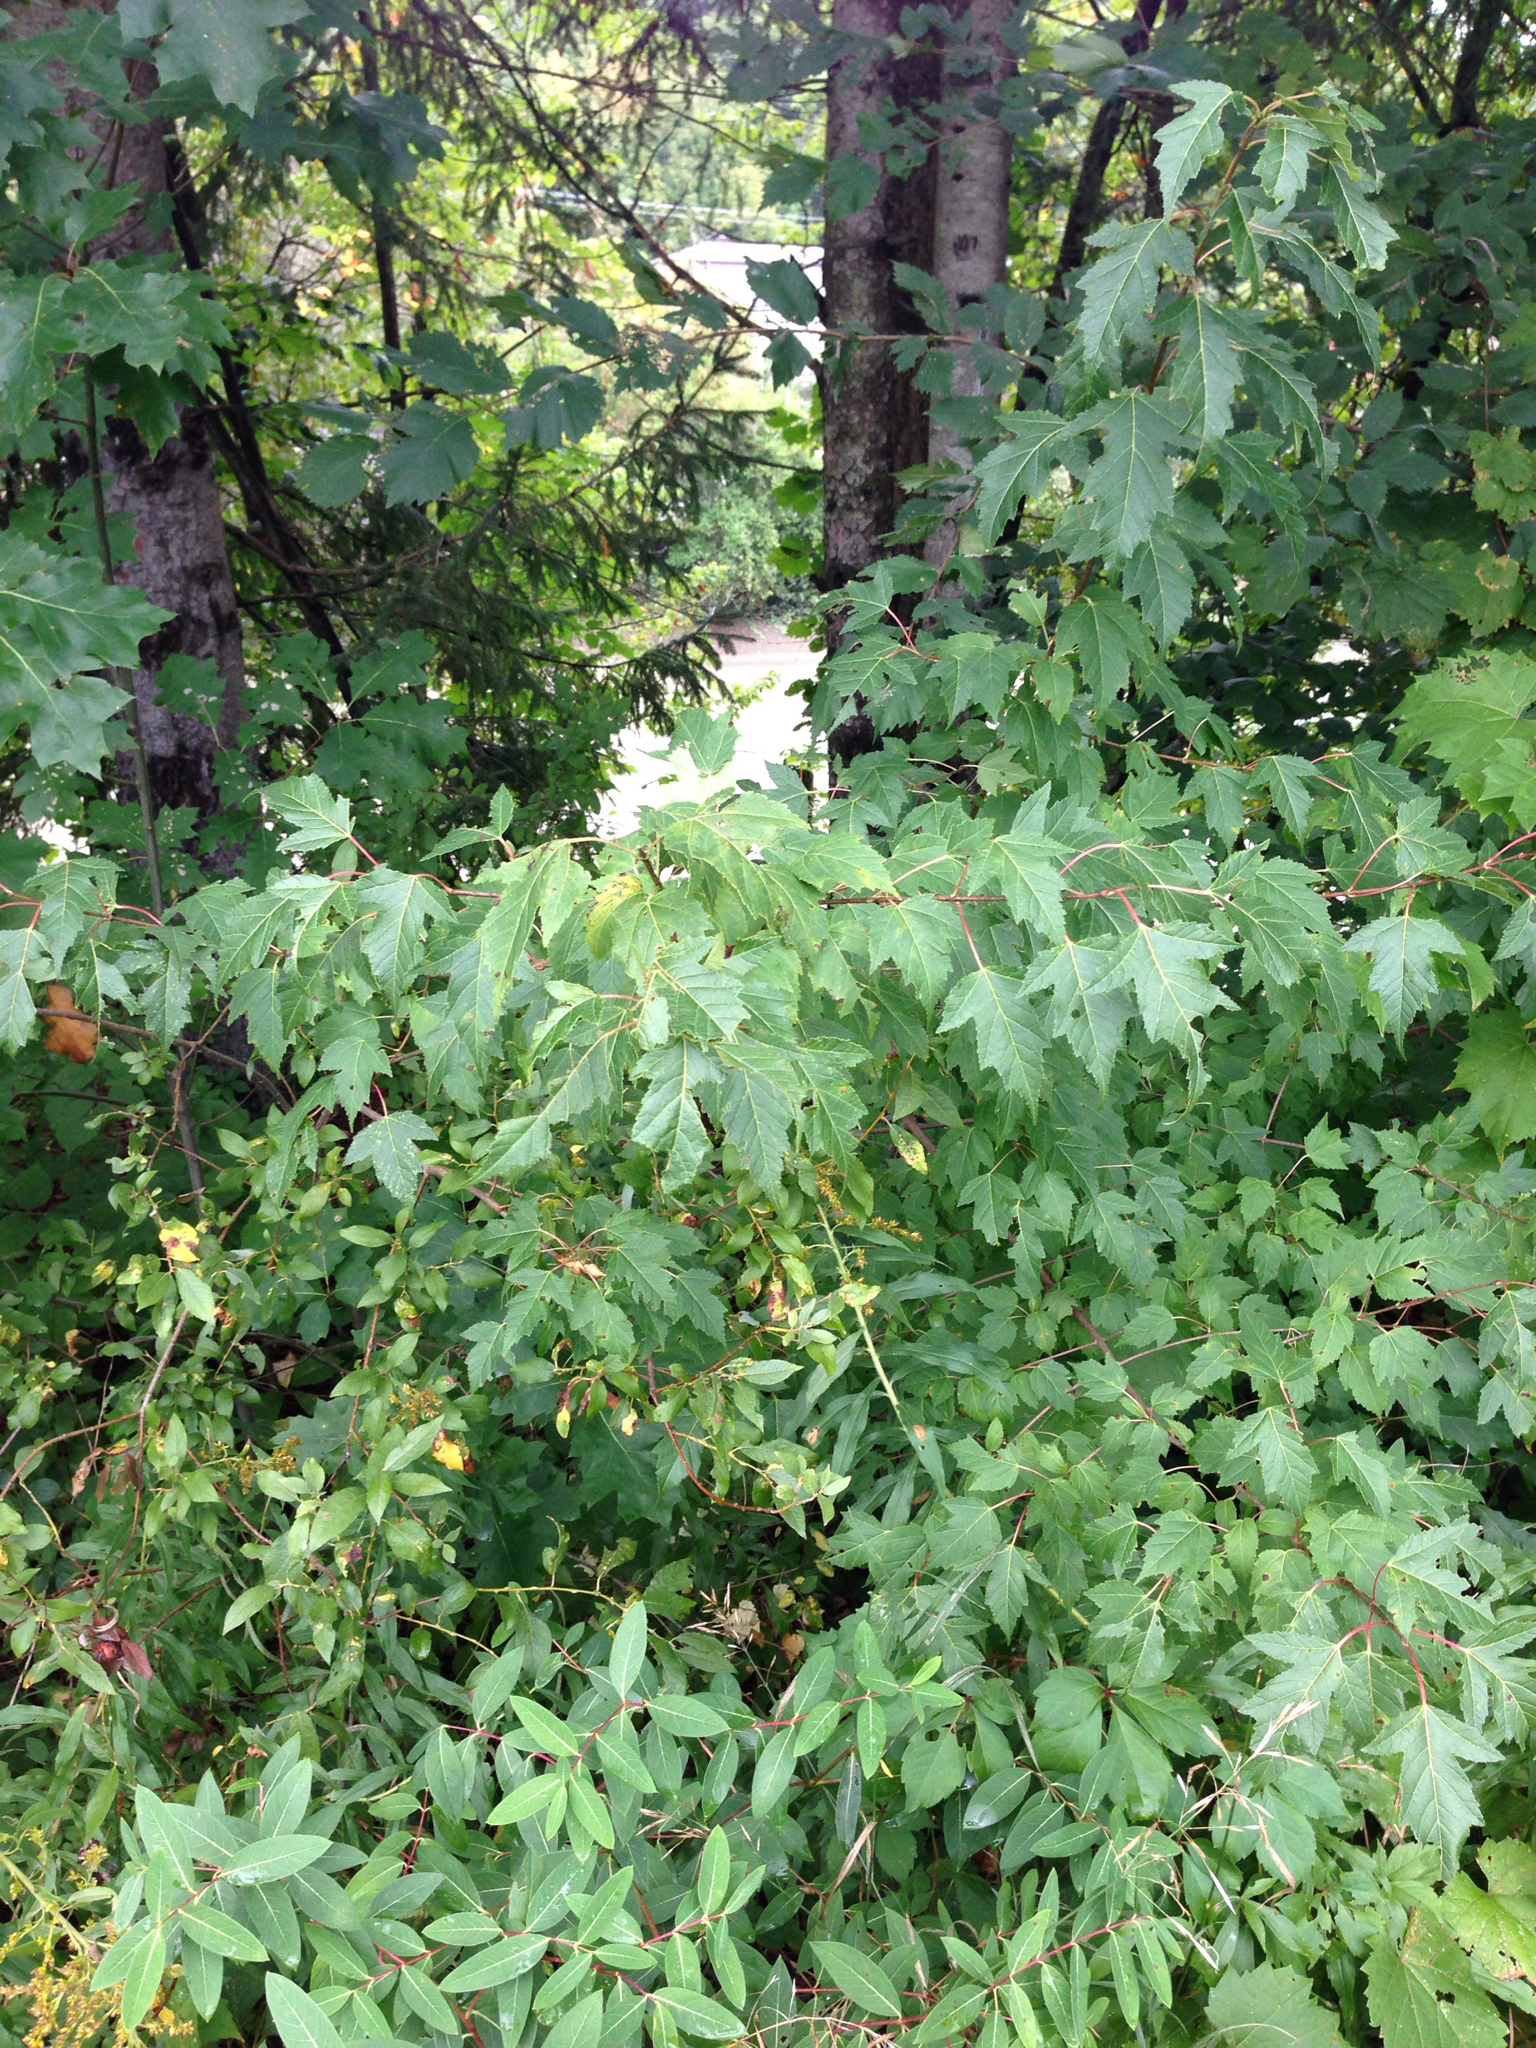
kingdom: Plantae
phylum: Tracheophyta
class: Magnoliopsida
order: Sapindales
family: Sapindaceae
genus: Acer
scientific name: Acer tataricum
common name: Tartar maple
